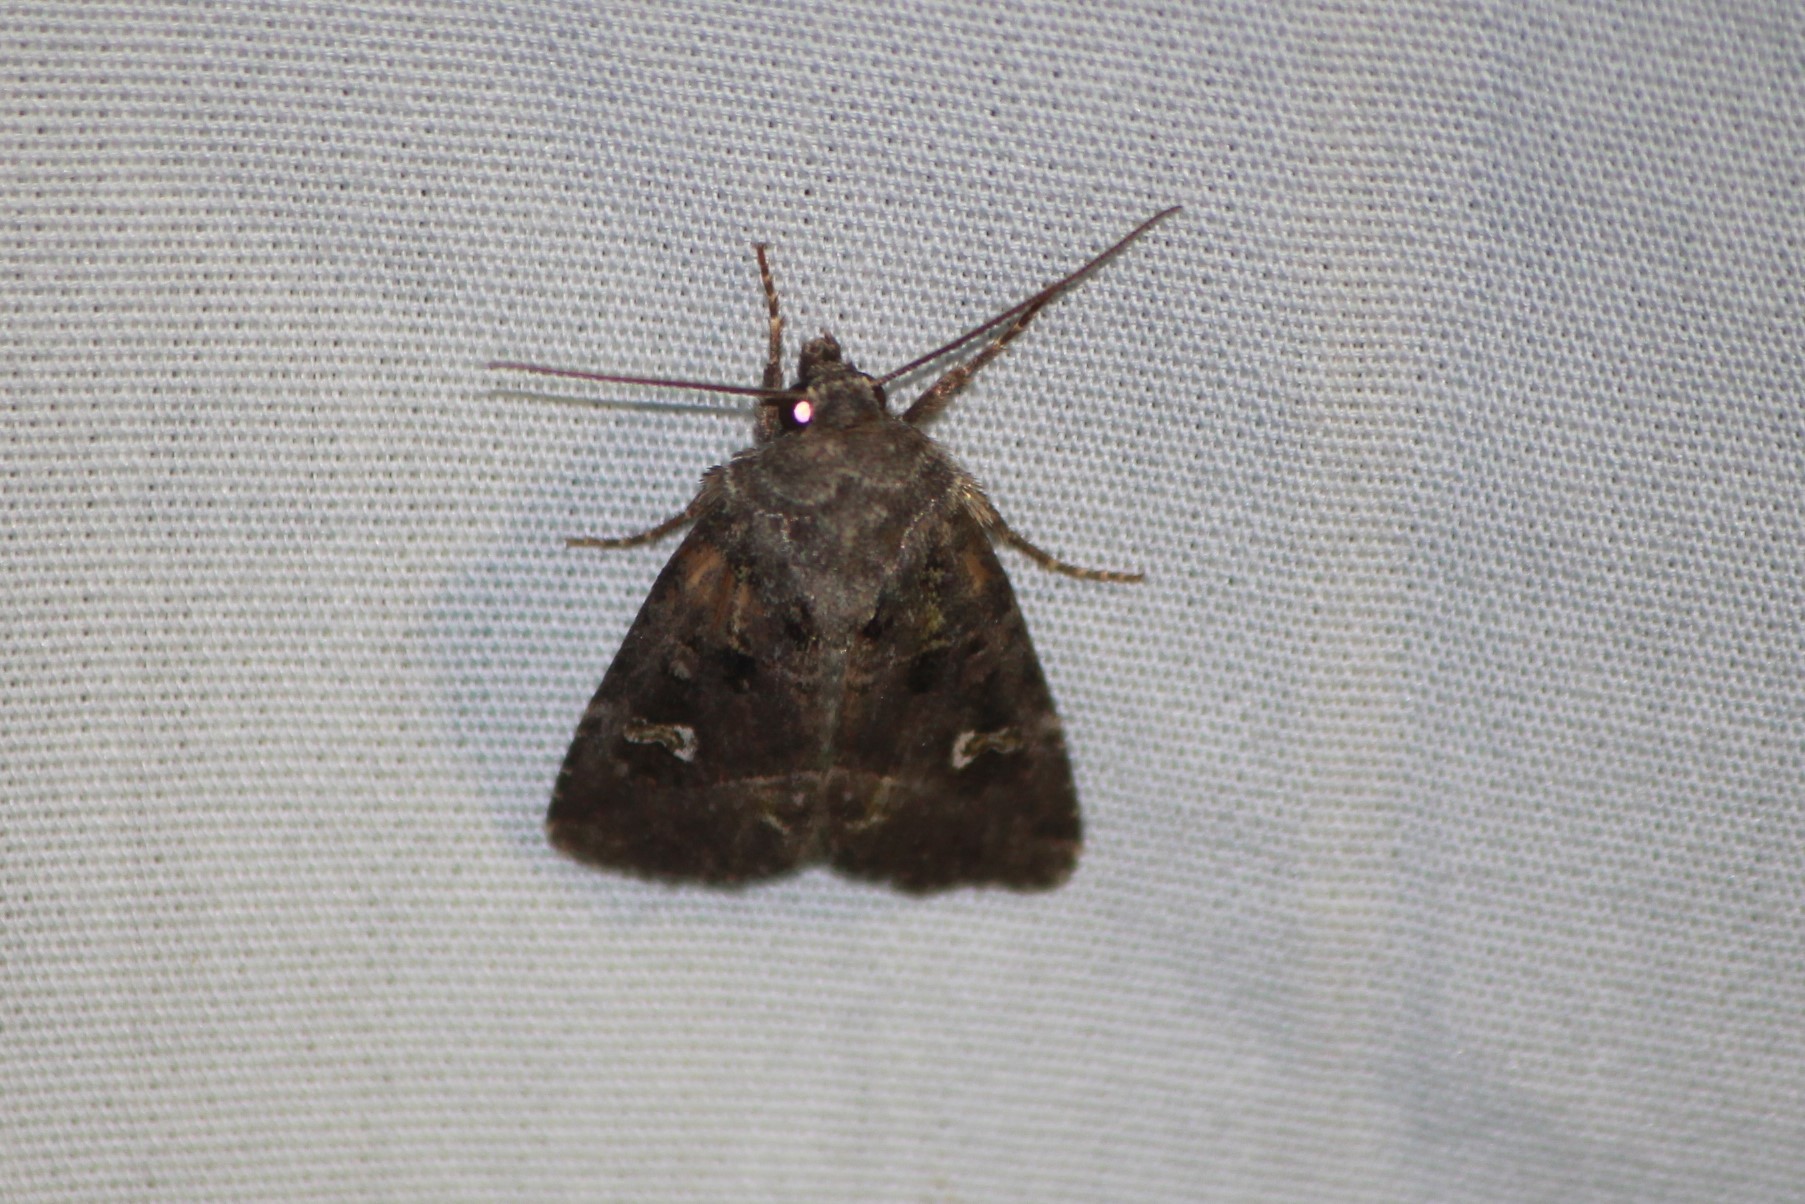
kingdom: Animalia
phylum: Arthropoda
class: Insecta
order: Lepidoptera
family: Noctuidae
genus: Lacinipolia
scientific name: Lacinipolia renigera
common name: Kidney-spotted minor
